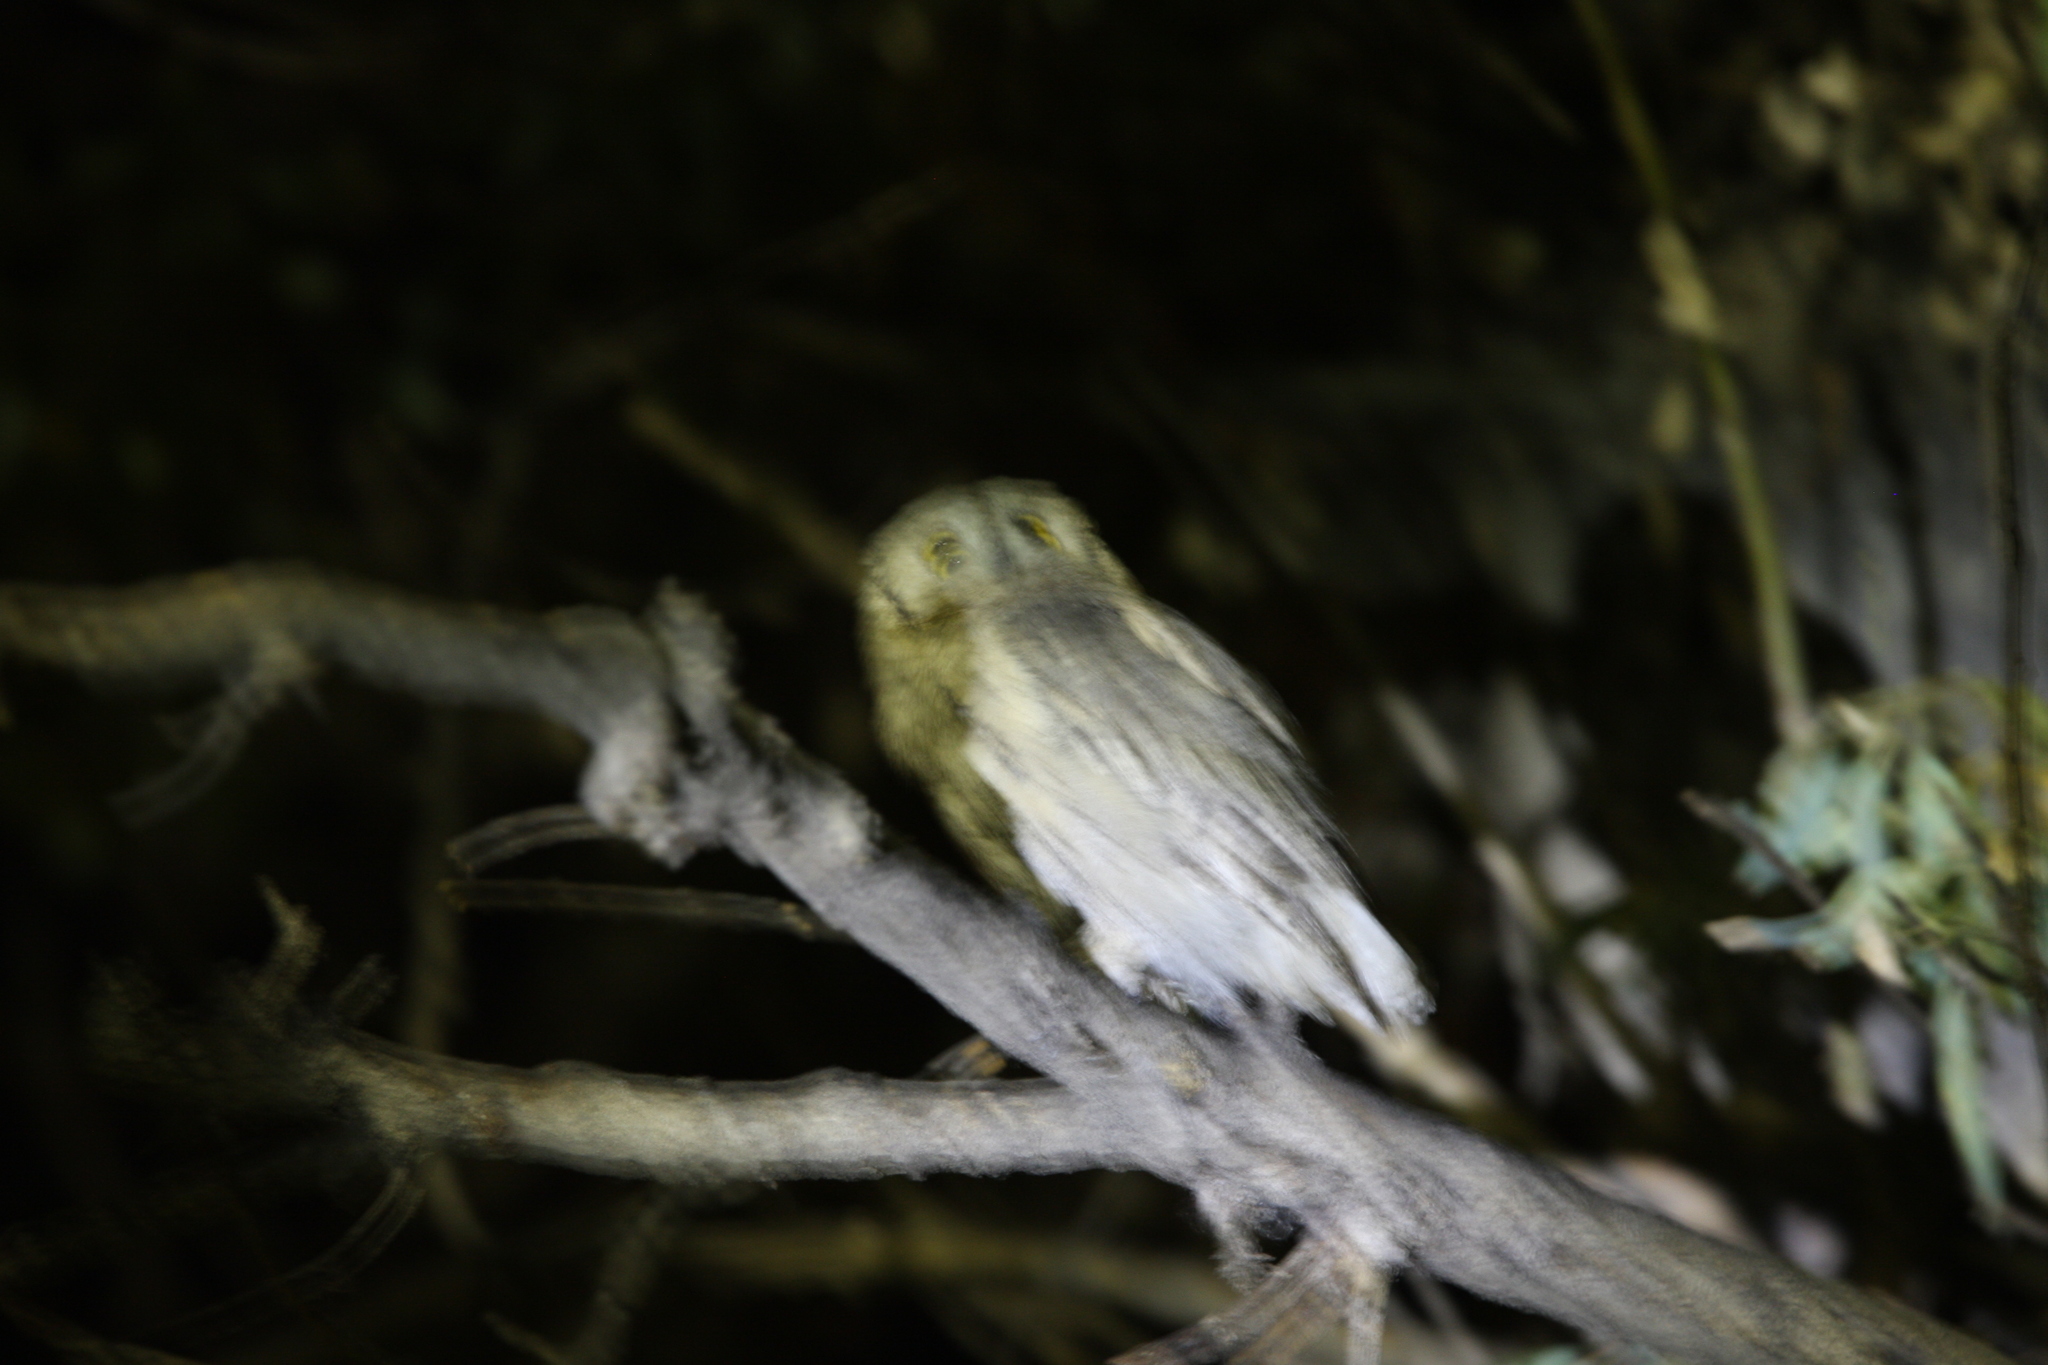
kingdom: Animalia
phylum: Chordata
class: Aves
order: Strigiformes
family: Strigidae
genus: Otus
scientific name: Otus brucei
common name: Pallid scops owl
